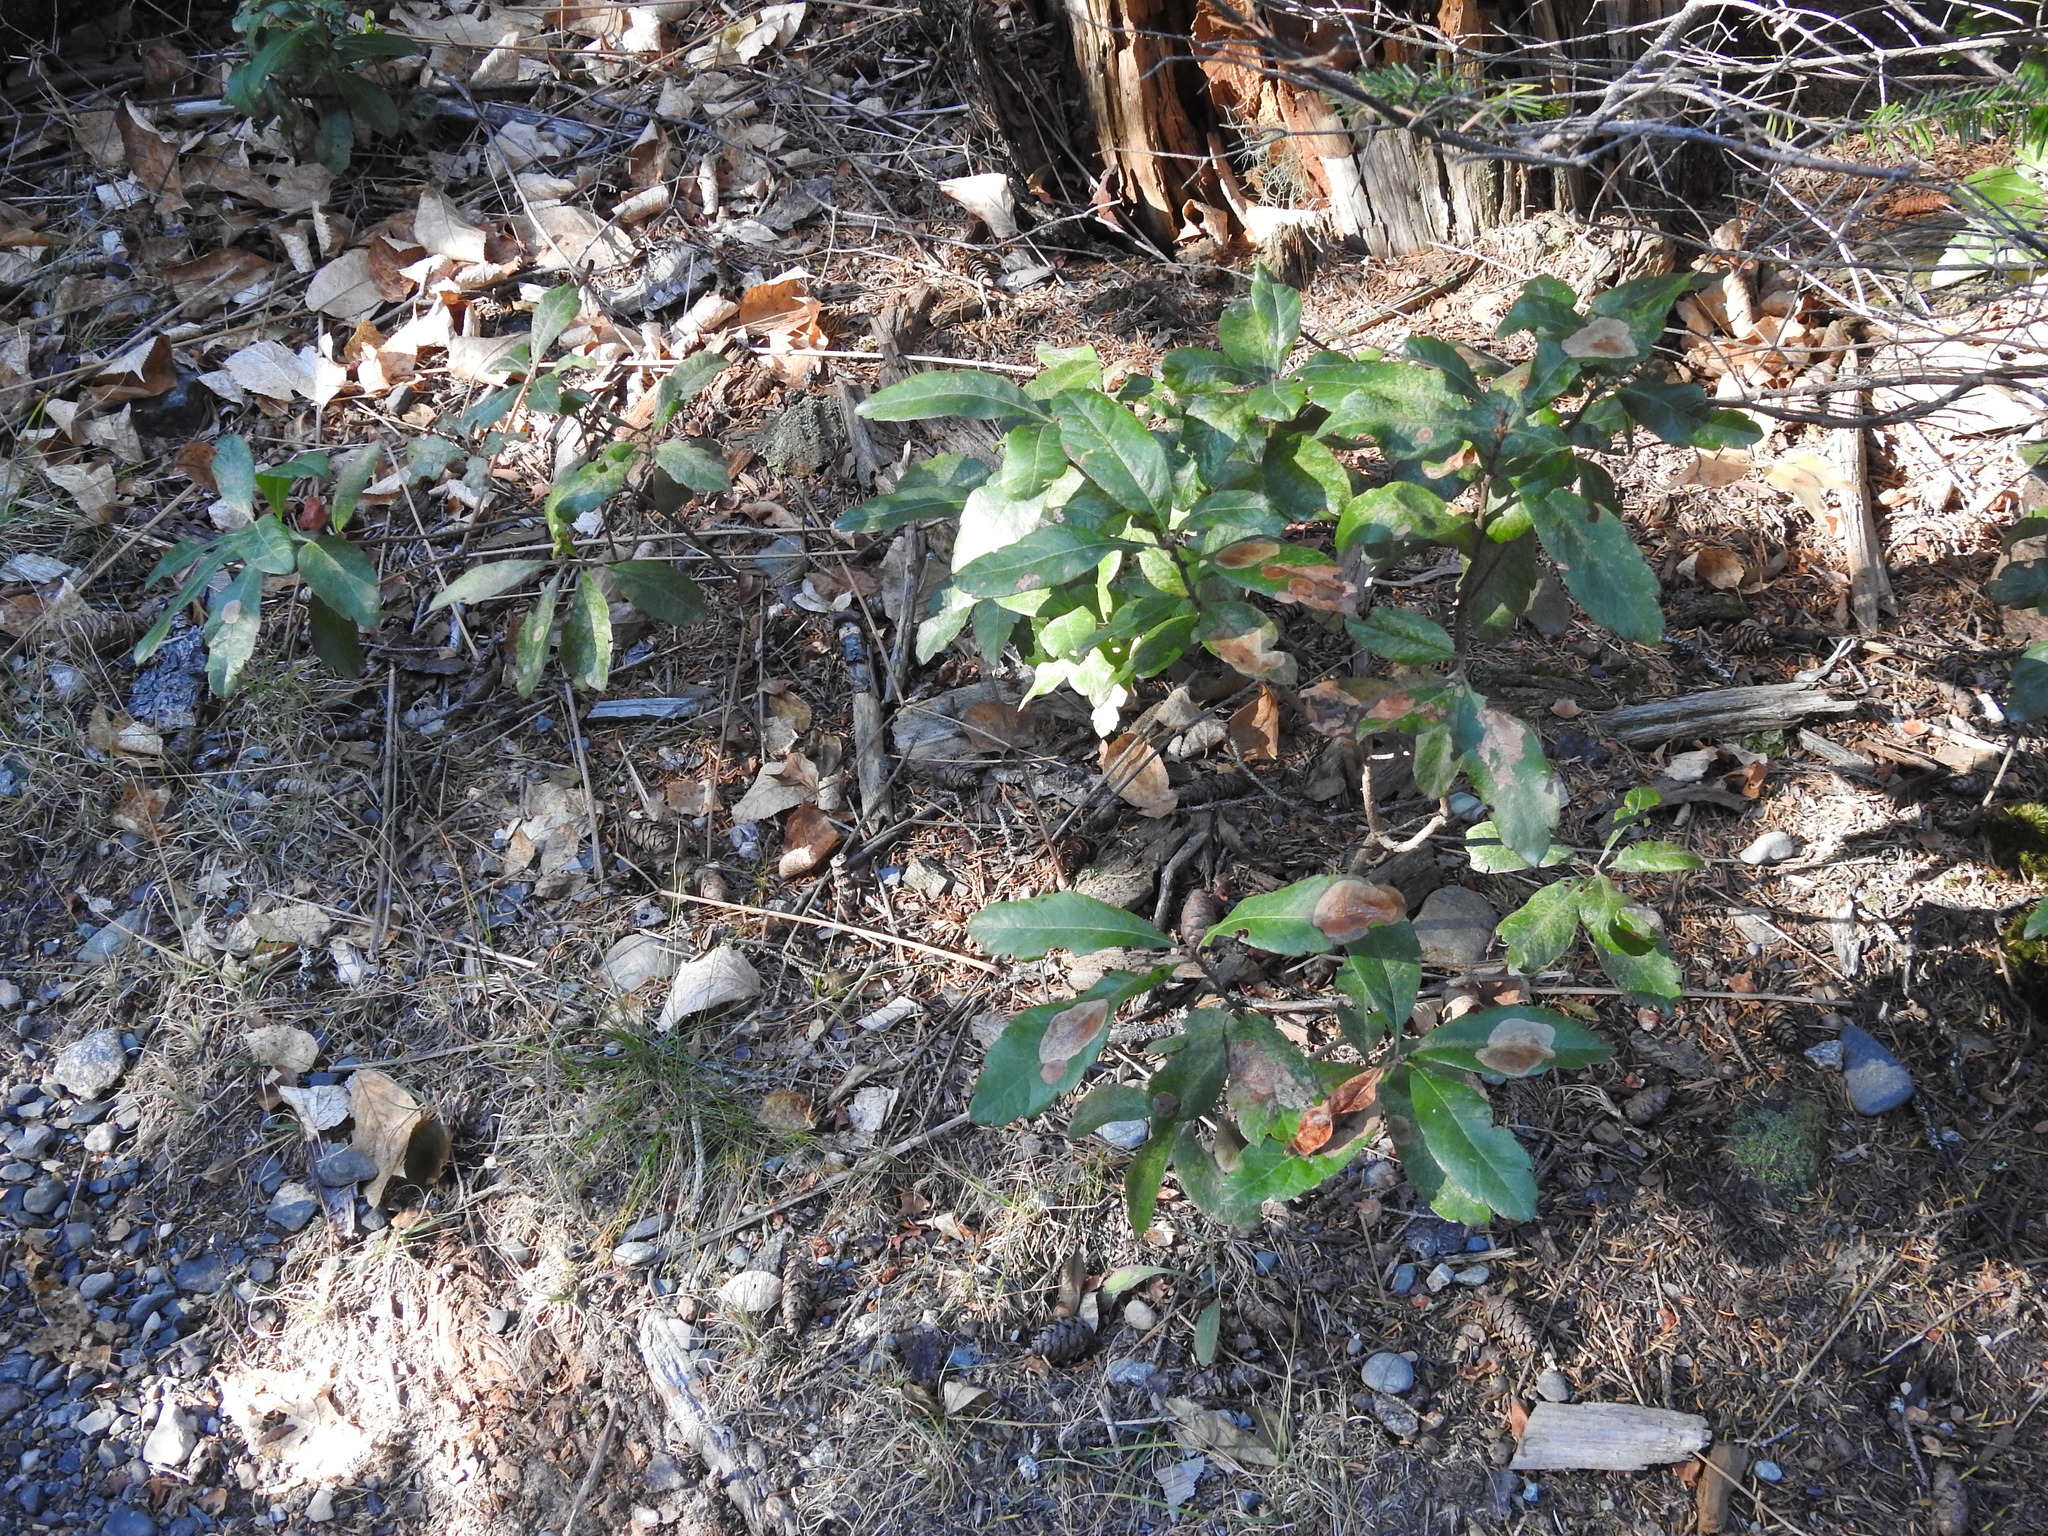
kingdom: Plantae
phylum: Tracheophyta
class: Magnoliopsida
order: Fagales
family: Myricaceae
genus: Morella
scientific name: Morella pensylvanica
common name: Northern bayberry
